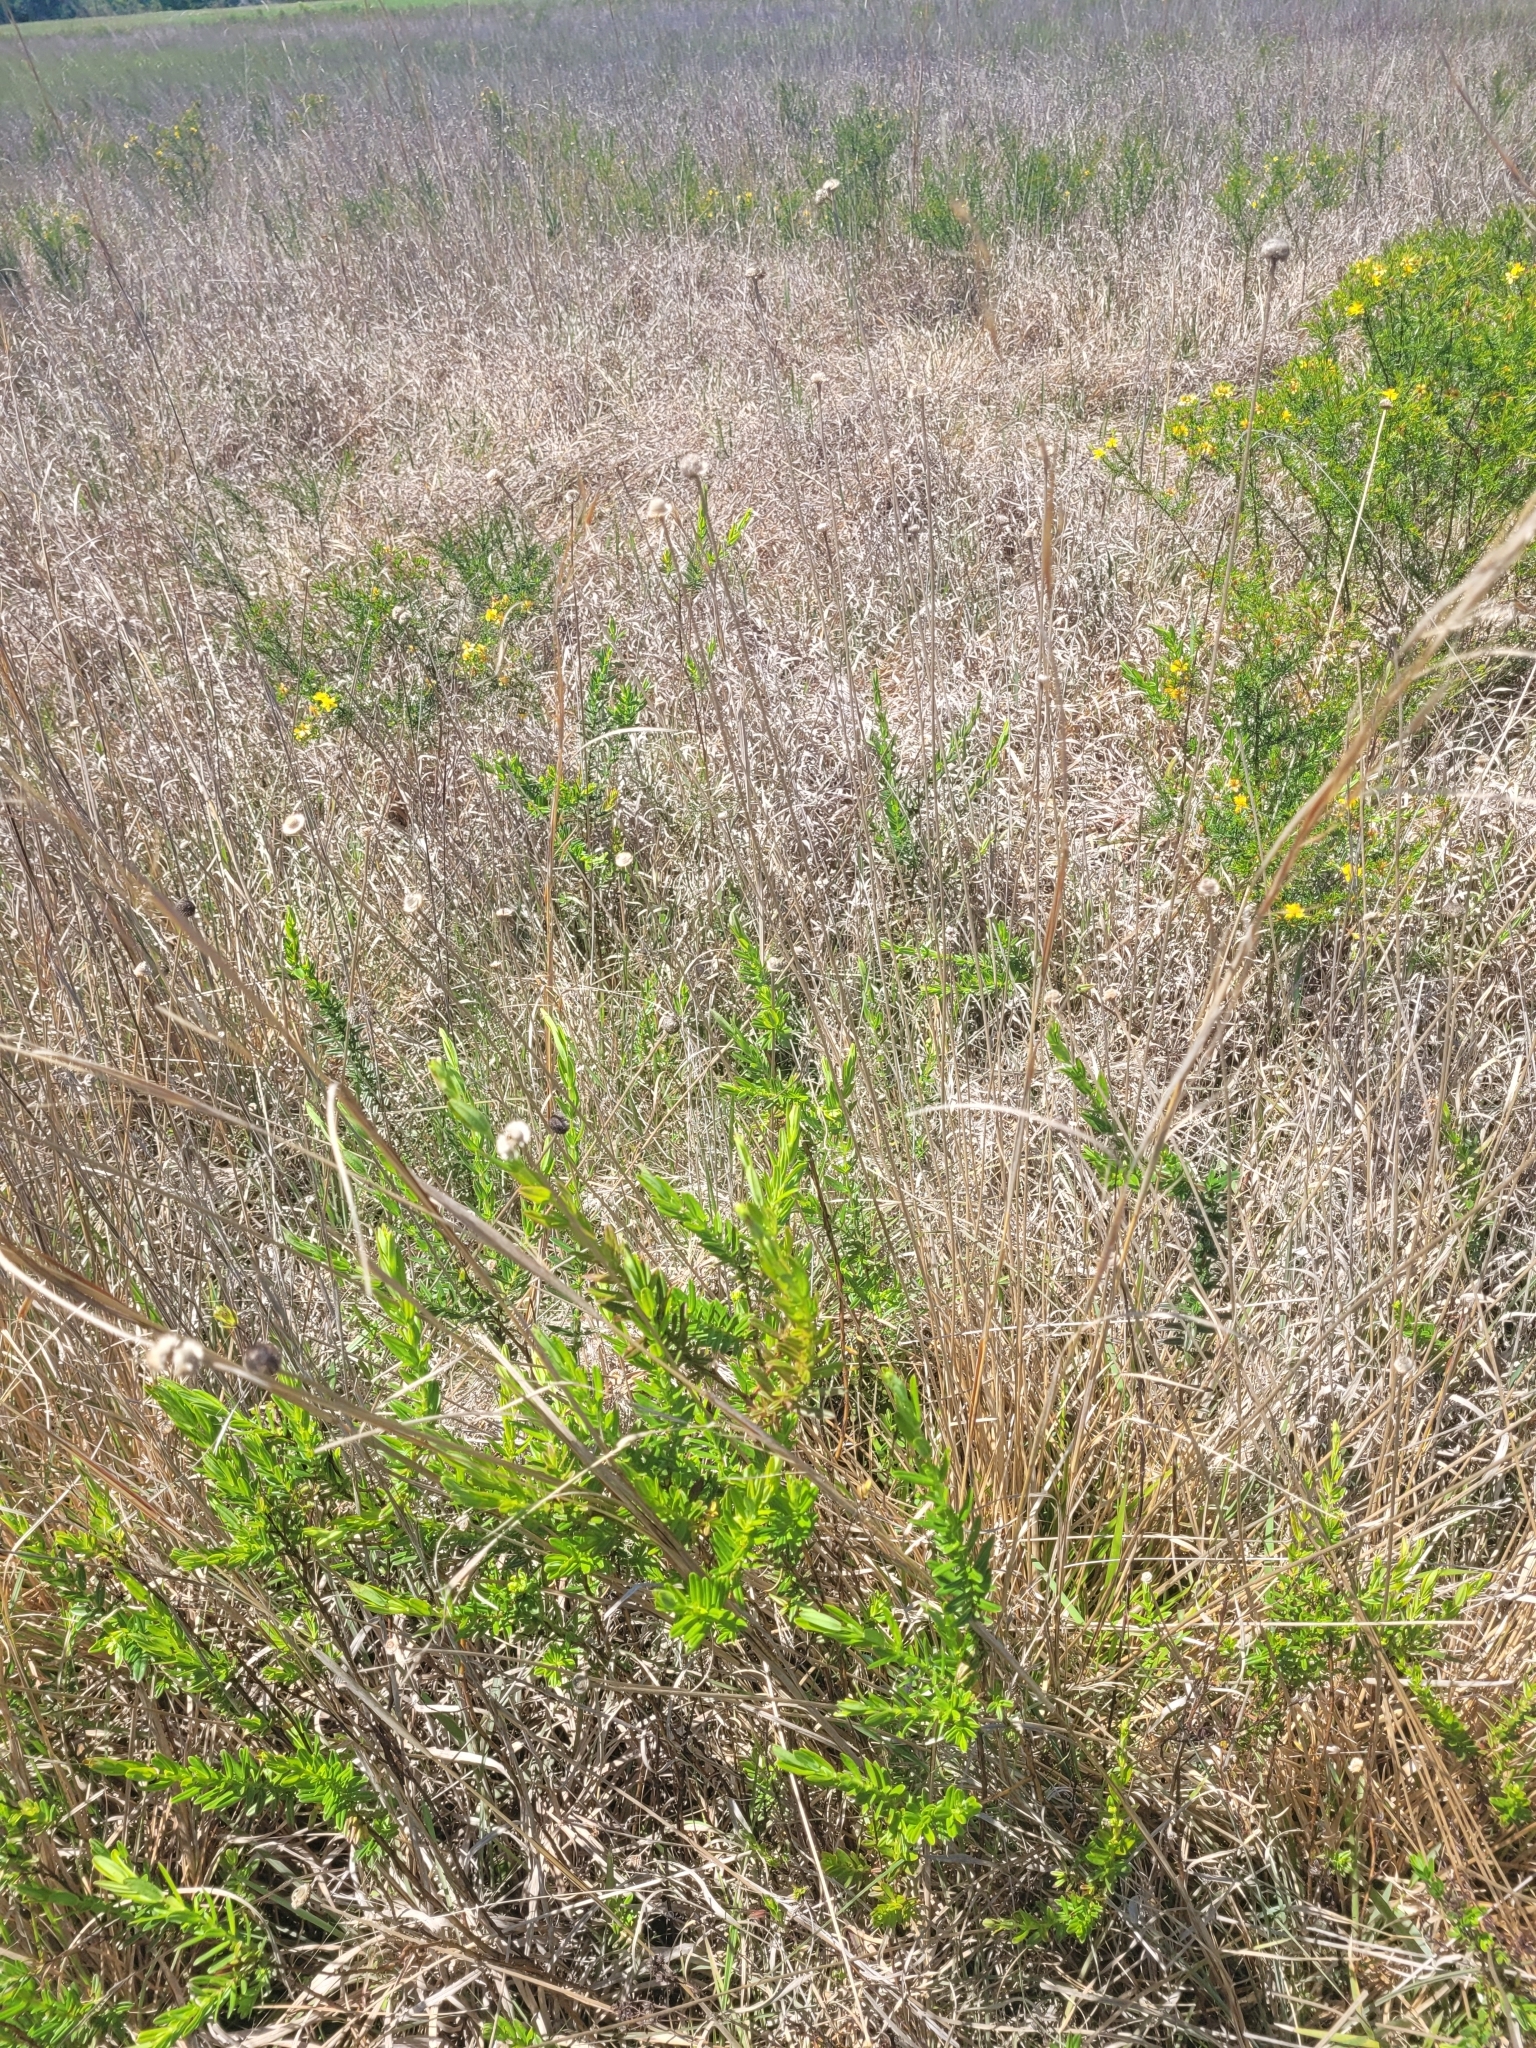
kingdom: Plantae
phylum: Tracheophyta
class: Liliopsida
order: Poales
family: Eriocaulaceae
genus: Eriocaulon
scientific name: Eriocaulon decangulare
